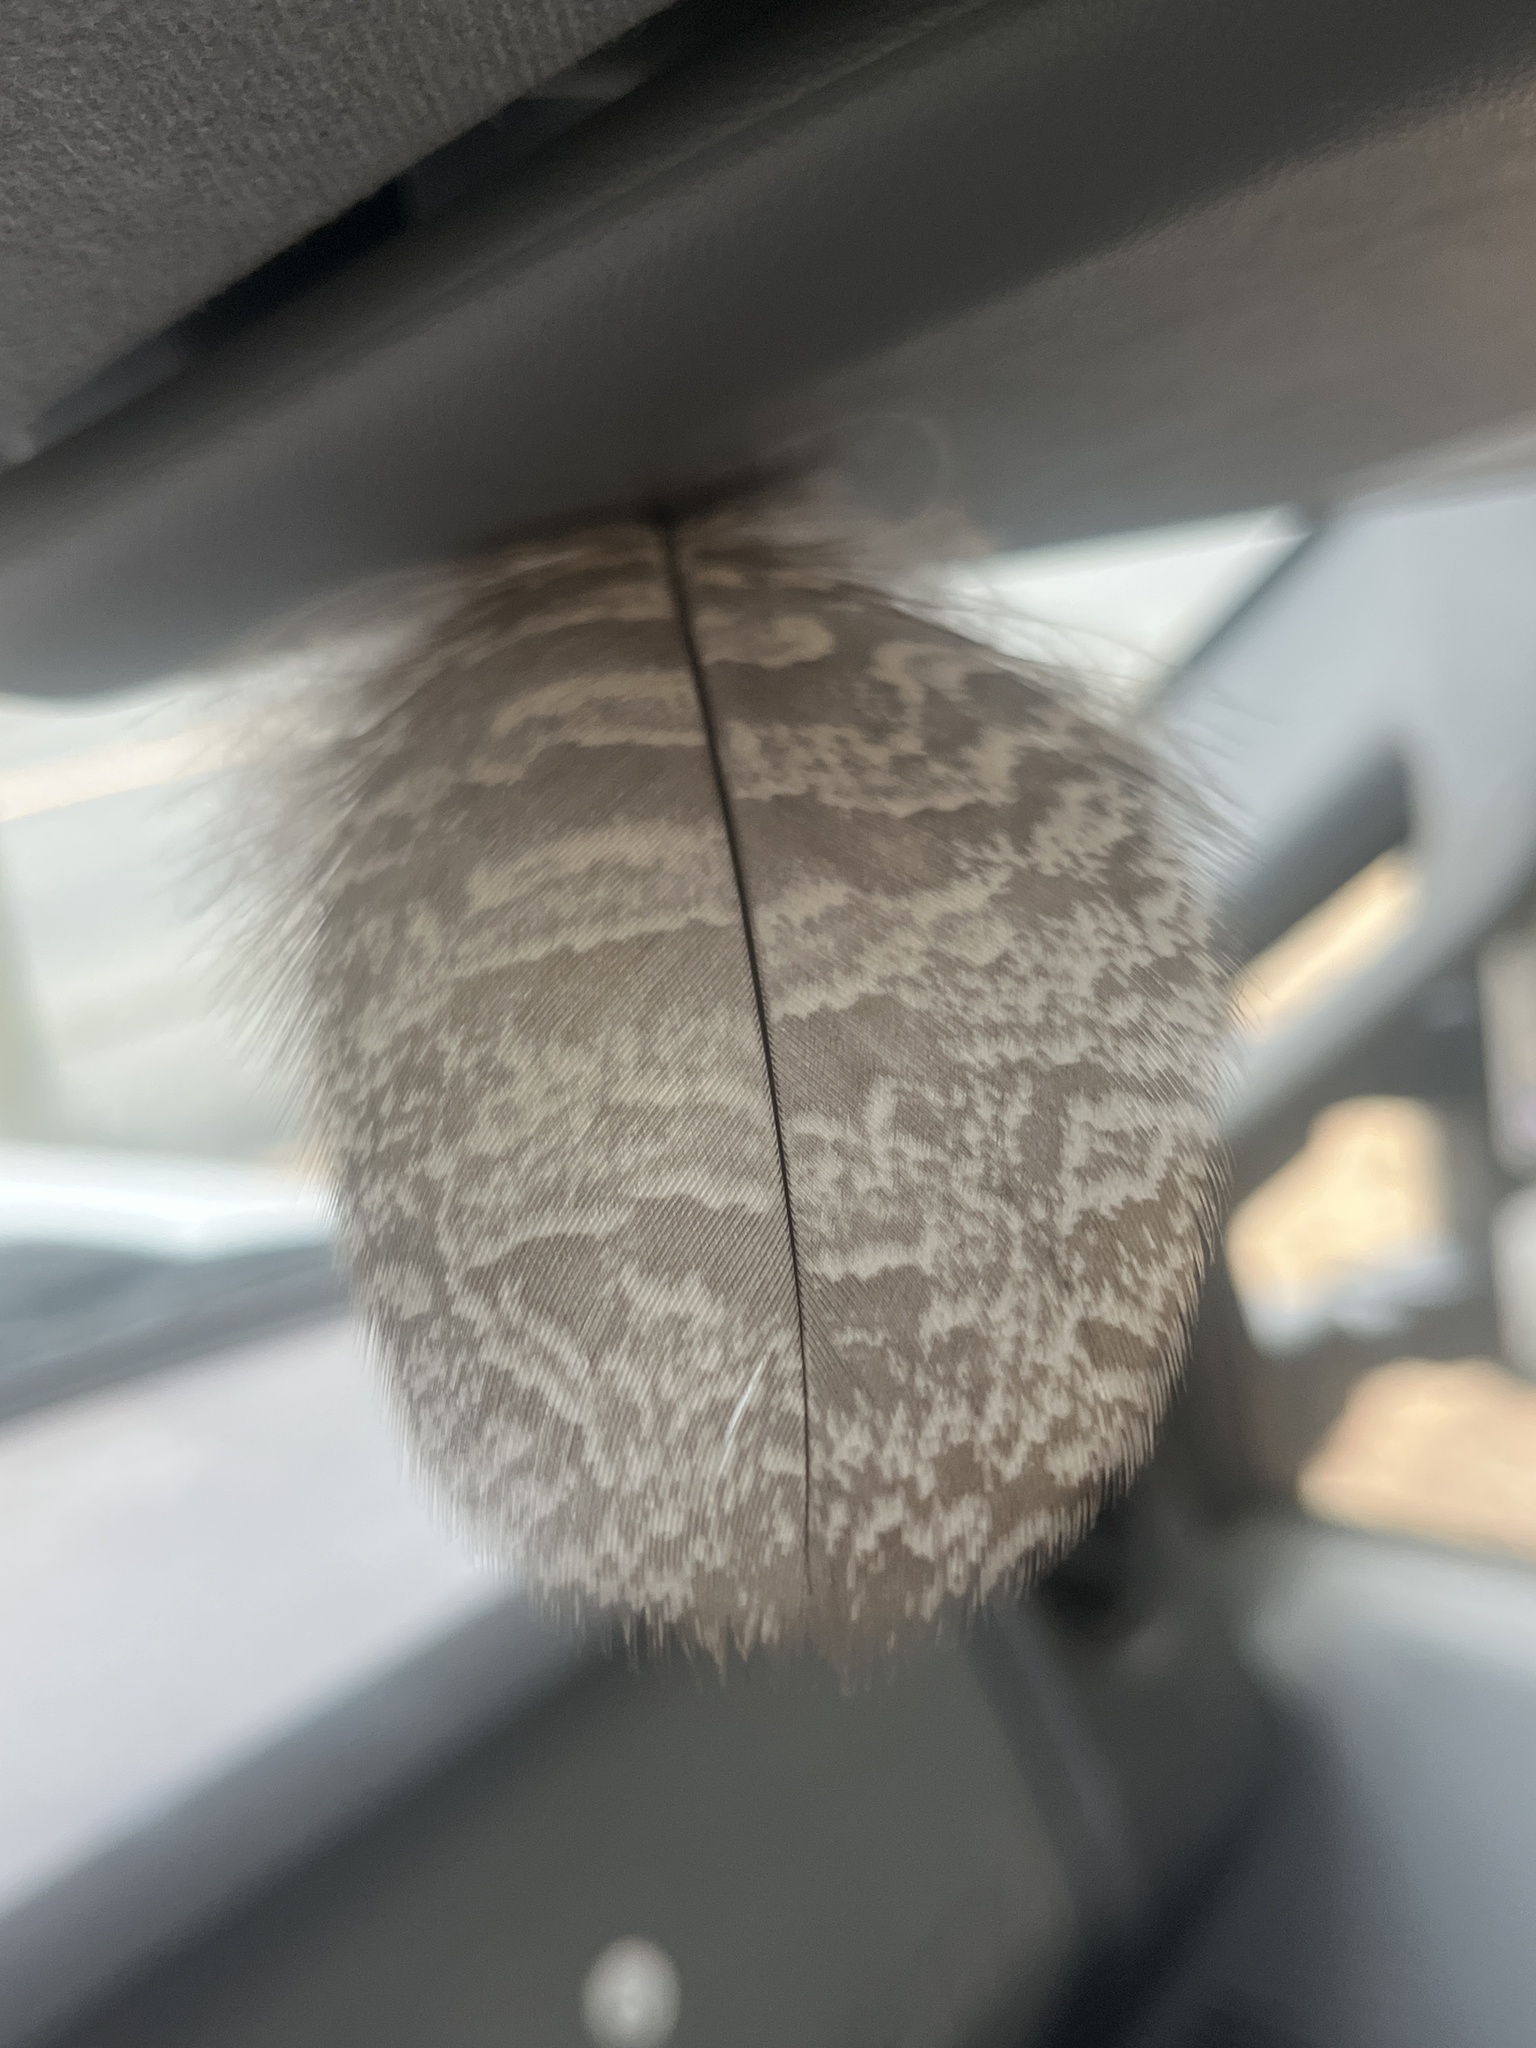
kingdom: Animalia
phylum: Chordata
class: Aves
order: Strigiformes
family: Strigidae
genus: Bubo
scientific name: Bubo virginianus
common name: Great horned owl
